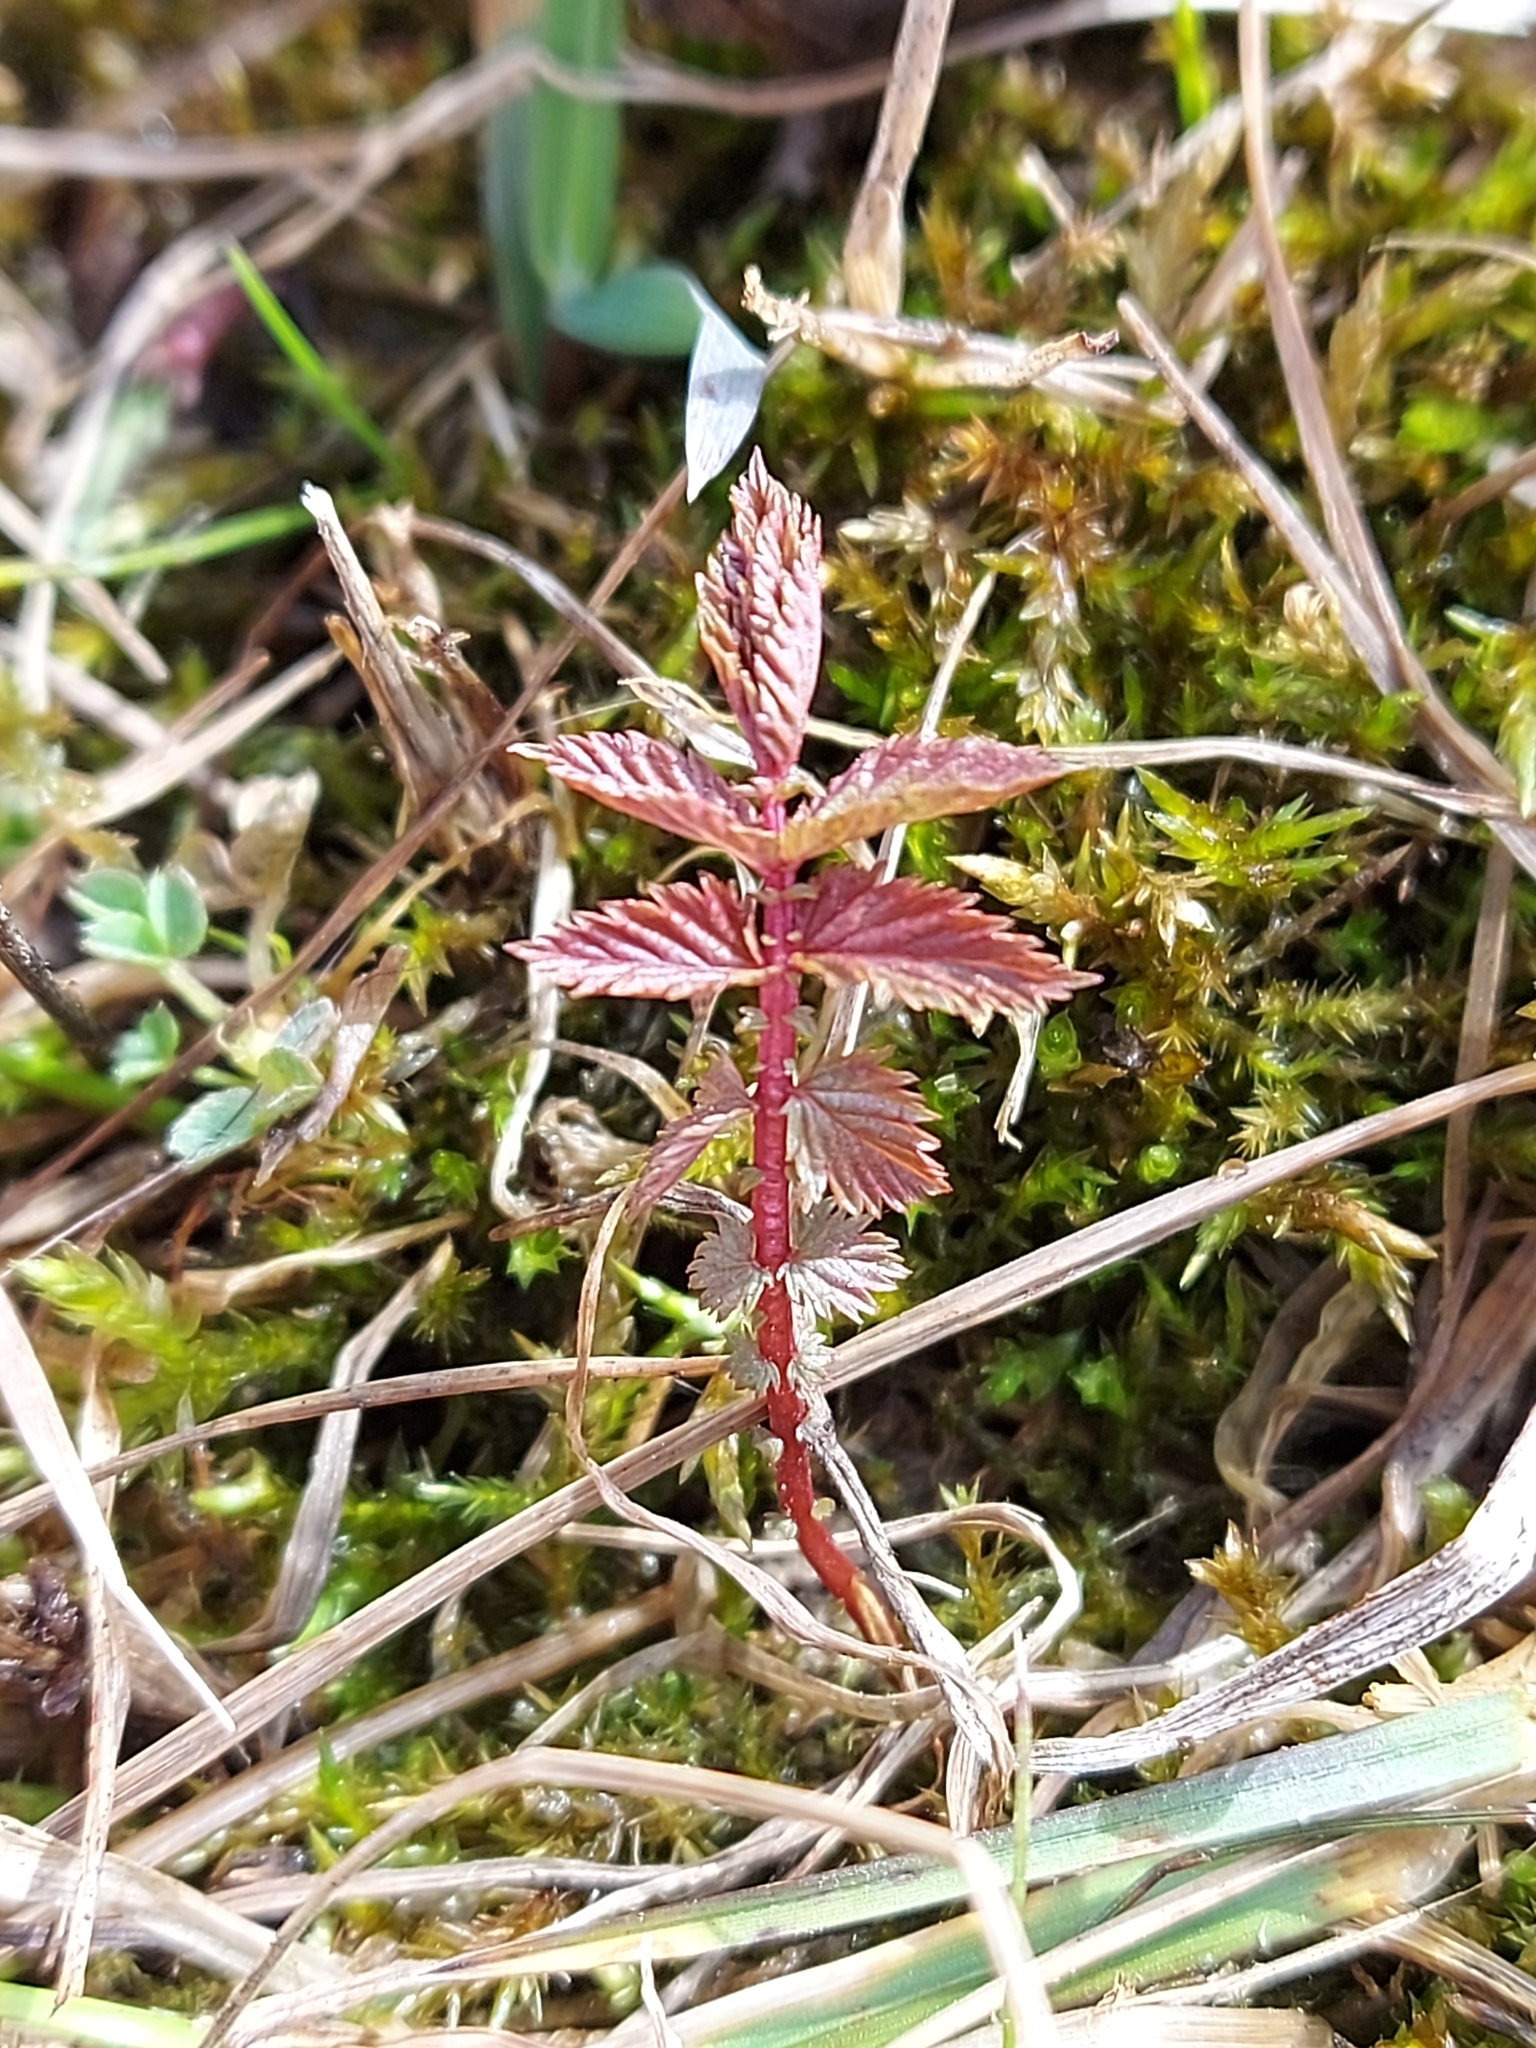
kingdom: Plantae
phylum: Tracheophyta
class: Magnoliopsida
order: Rosales
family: Rosaceae
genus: Filipendula
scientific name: Filipendula ulmaria
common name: Meadowsweet
